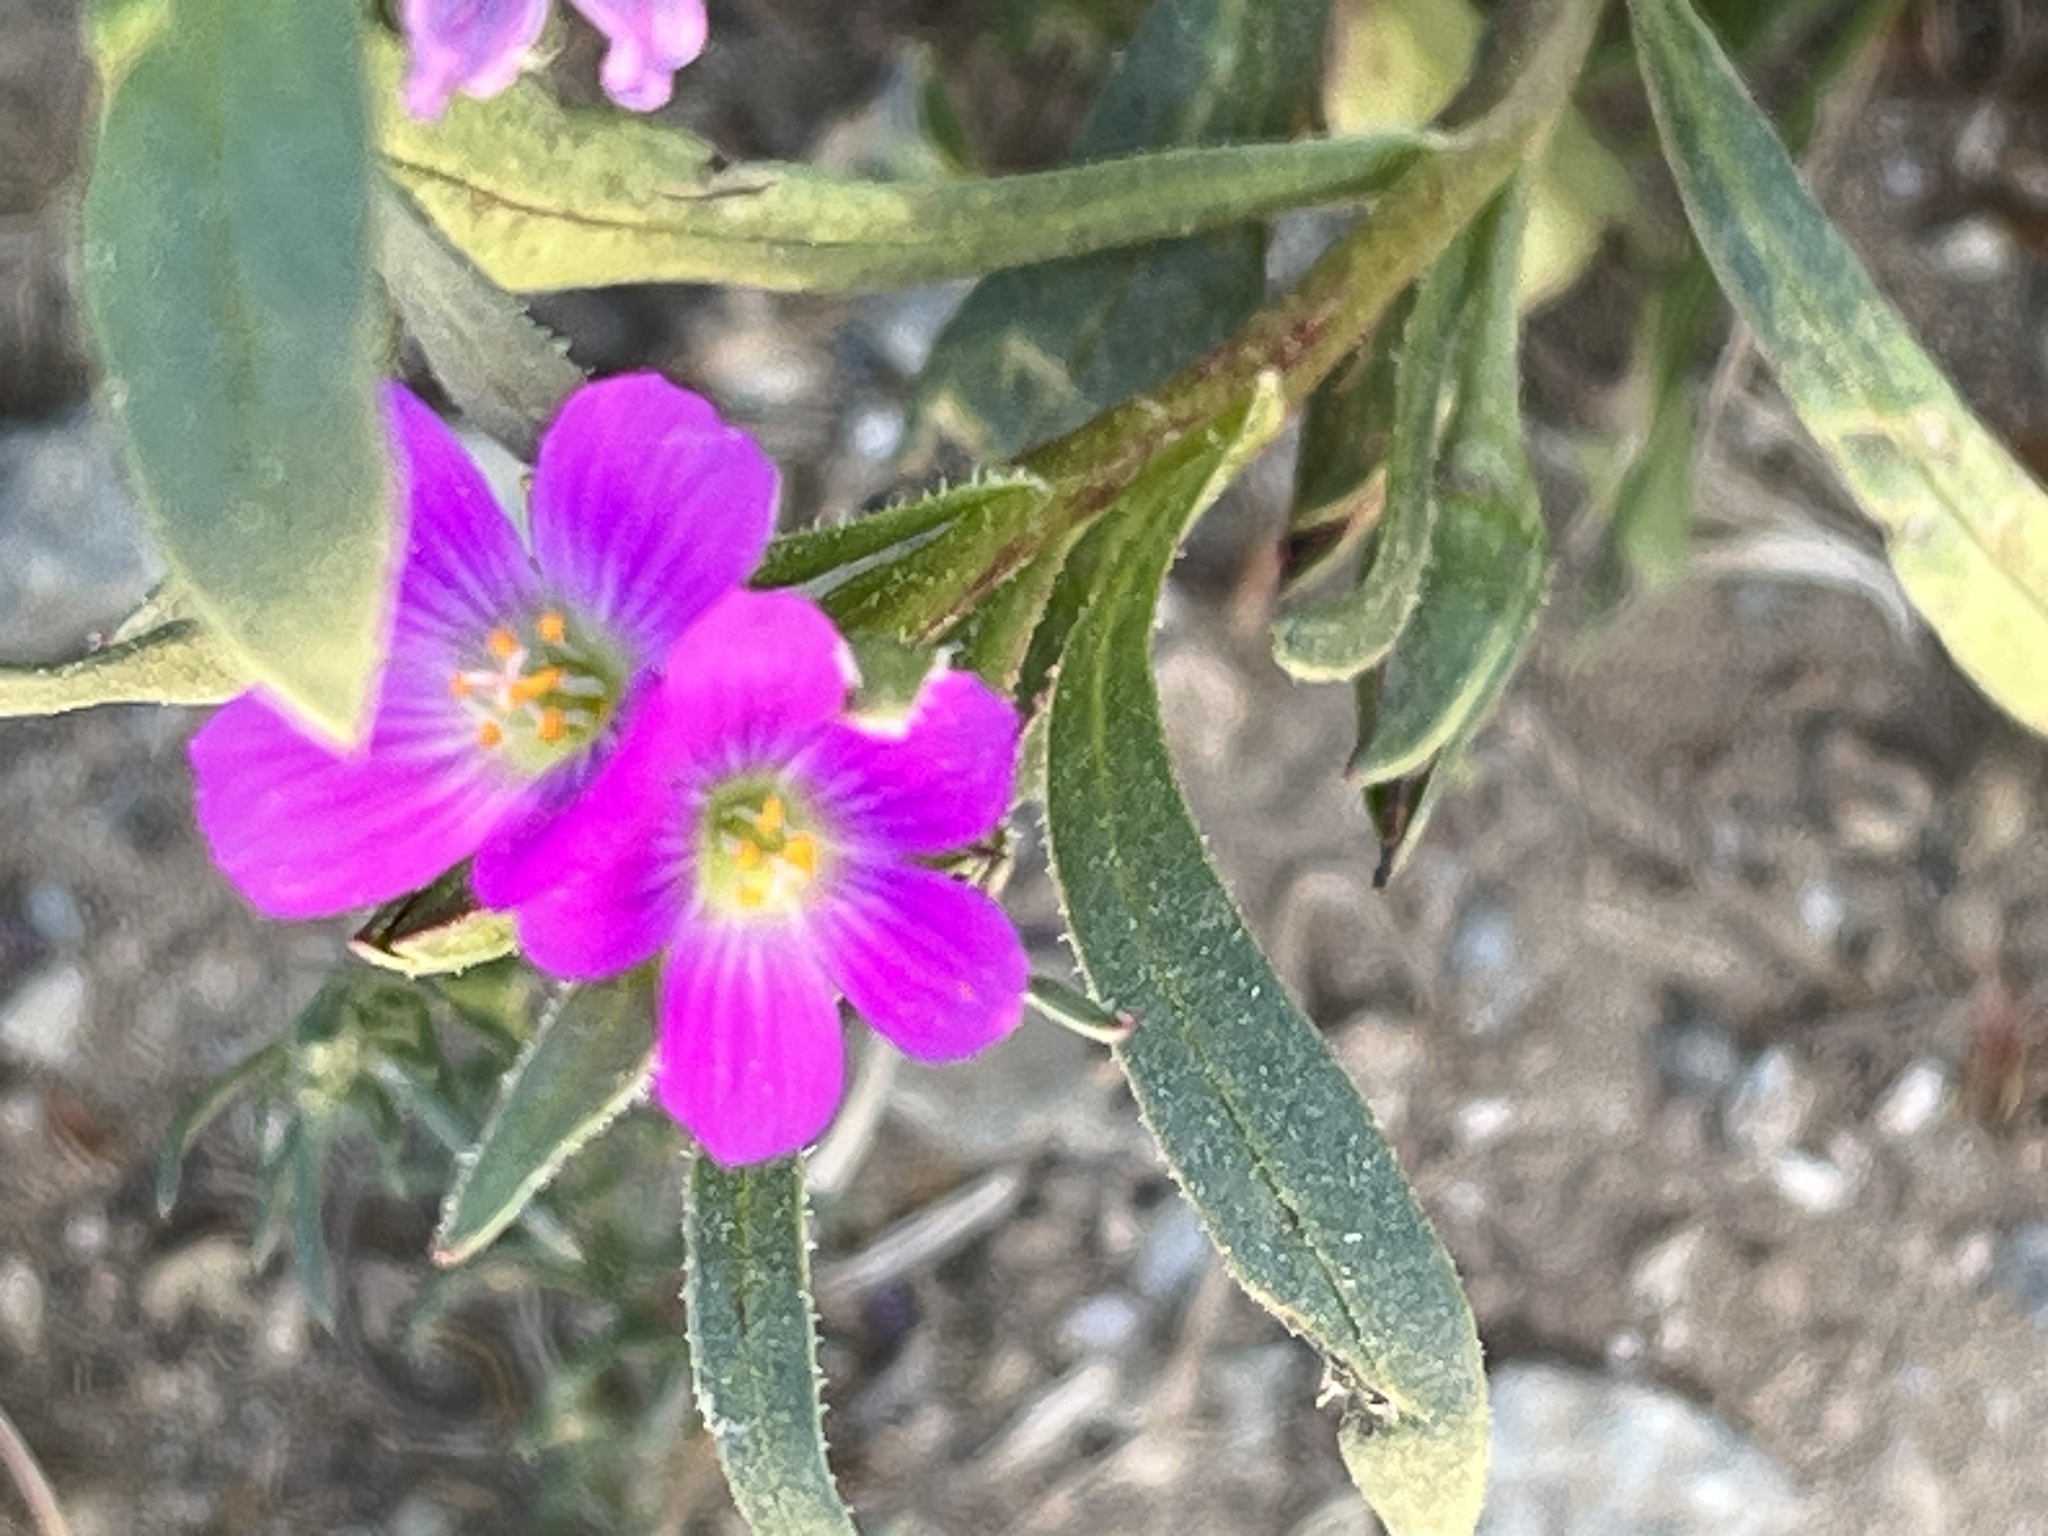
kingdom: Plantae
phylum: Tracheophyta
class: Magnoliopsida
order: Caryophyllales
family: Montiaceae
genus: Calandrinia
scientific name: Calandrinia menziesii
